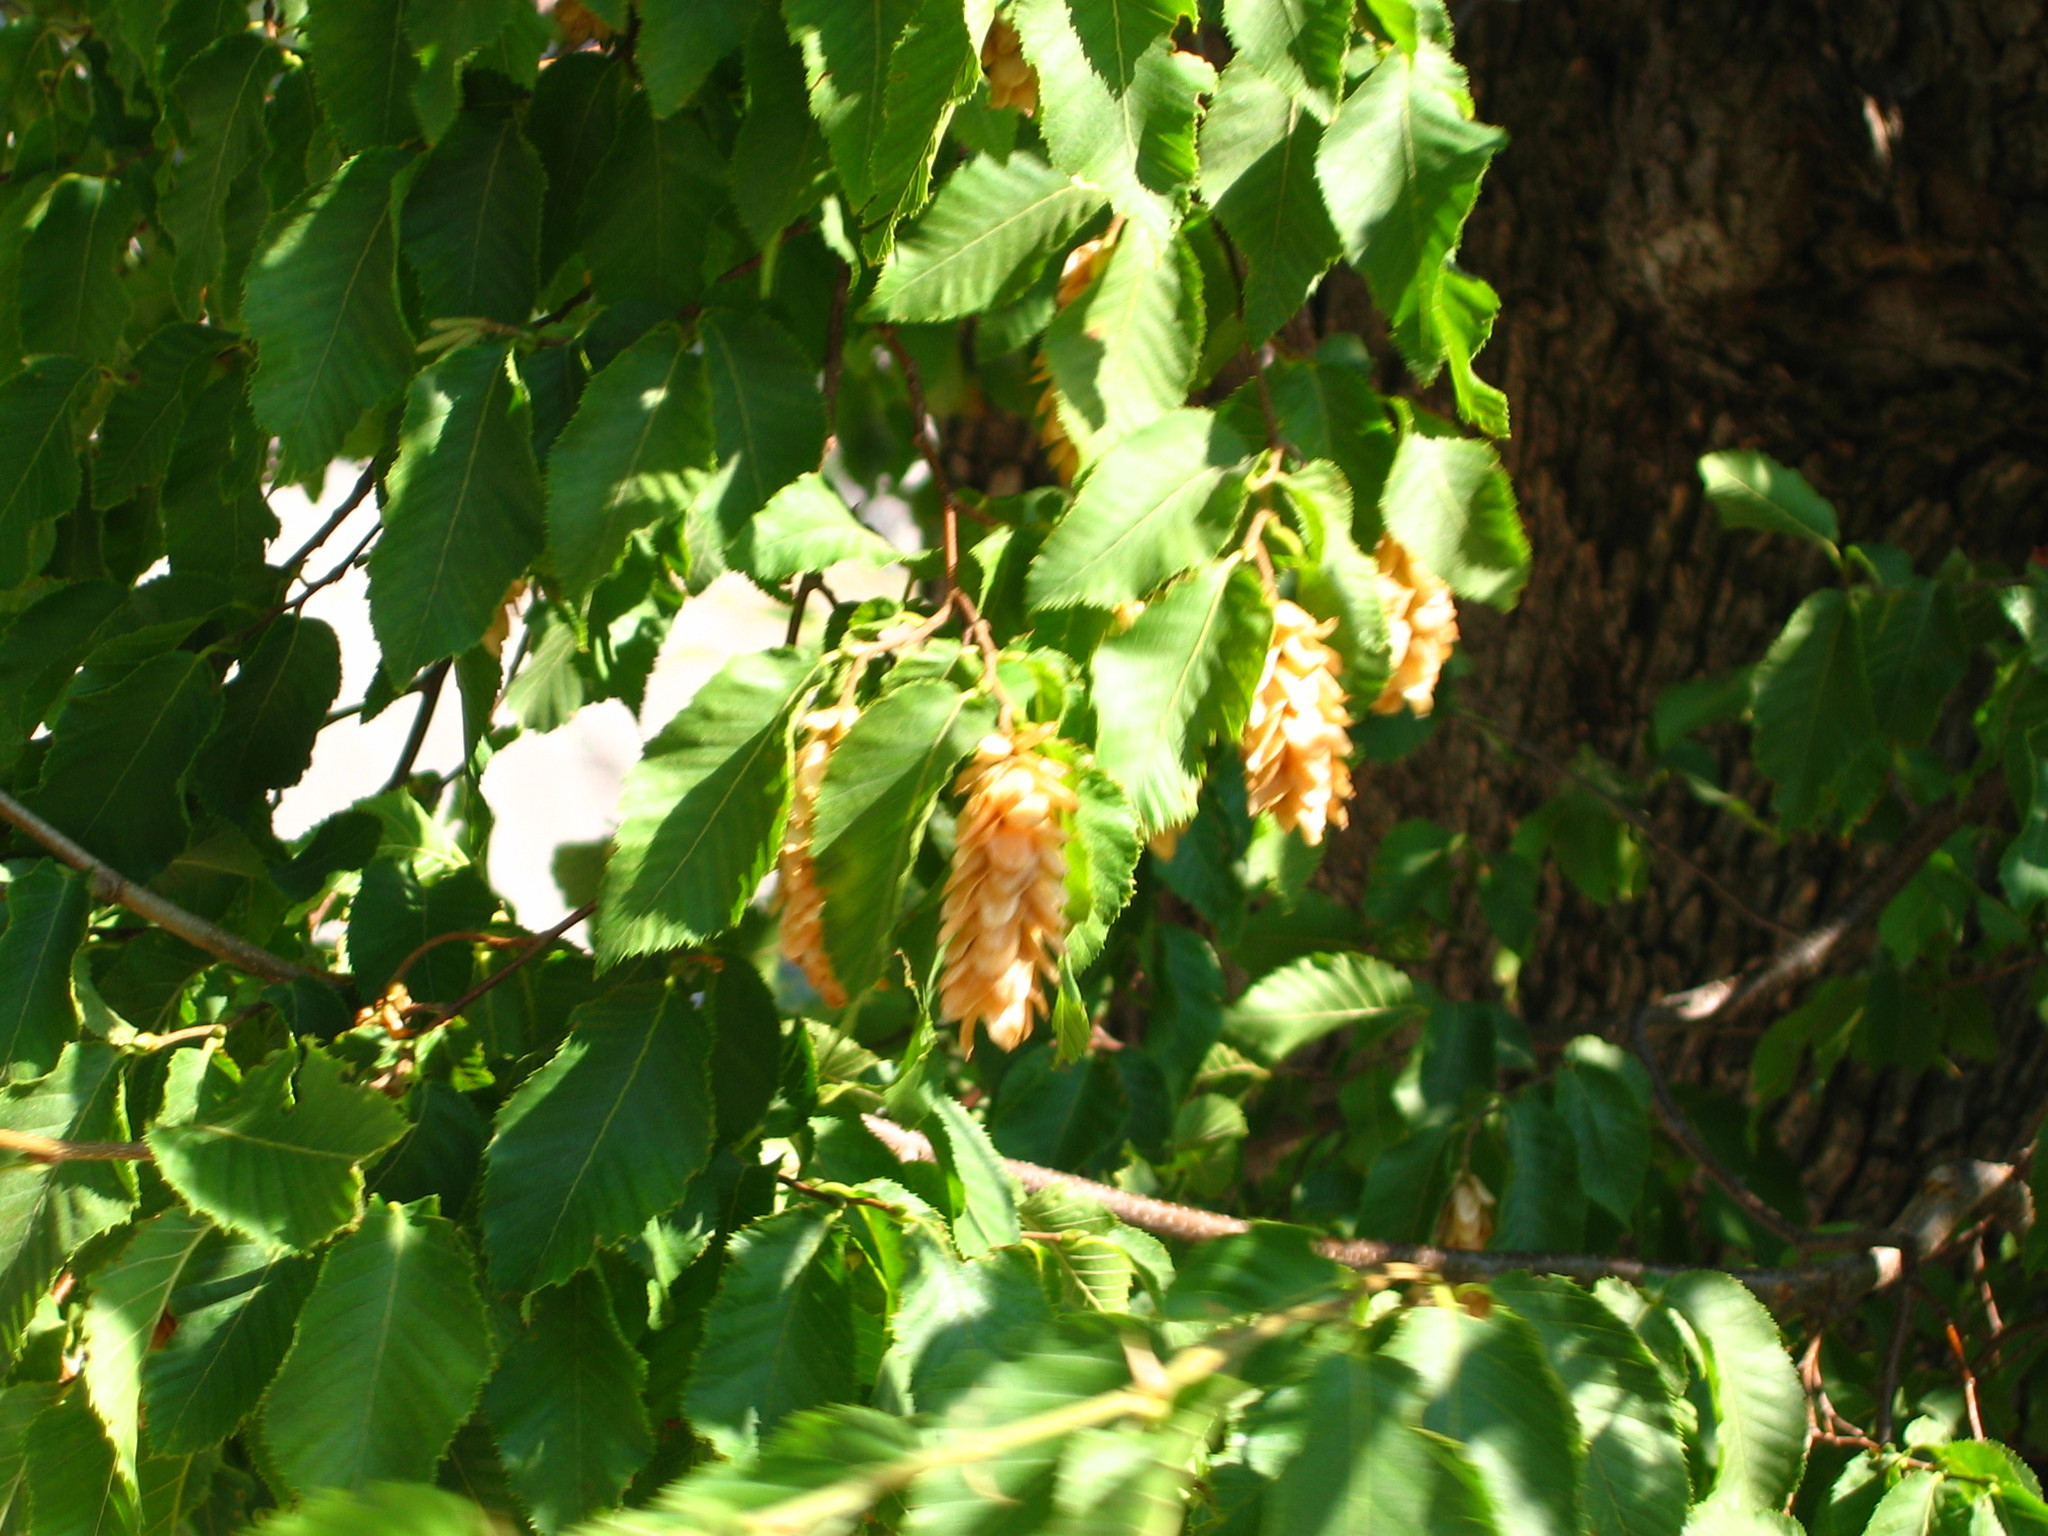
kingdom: Plantae
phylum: Tracheophyta
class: Magnoliopsida
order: Fagales
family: Betulaceae
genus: Ostrya
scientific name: Ostrya carpinifolia
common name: European hop-hornbeam
